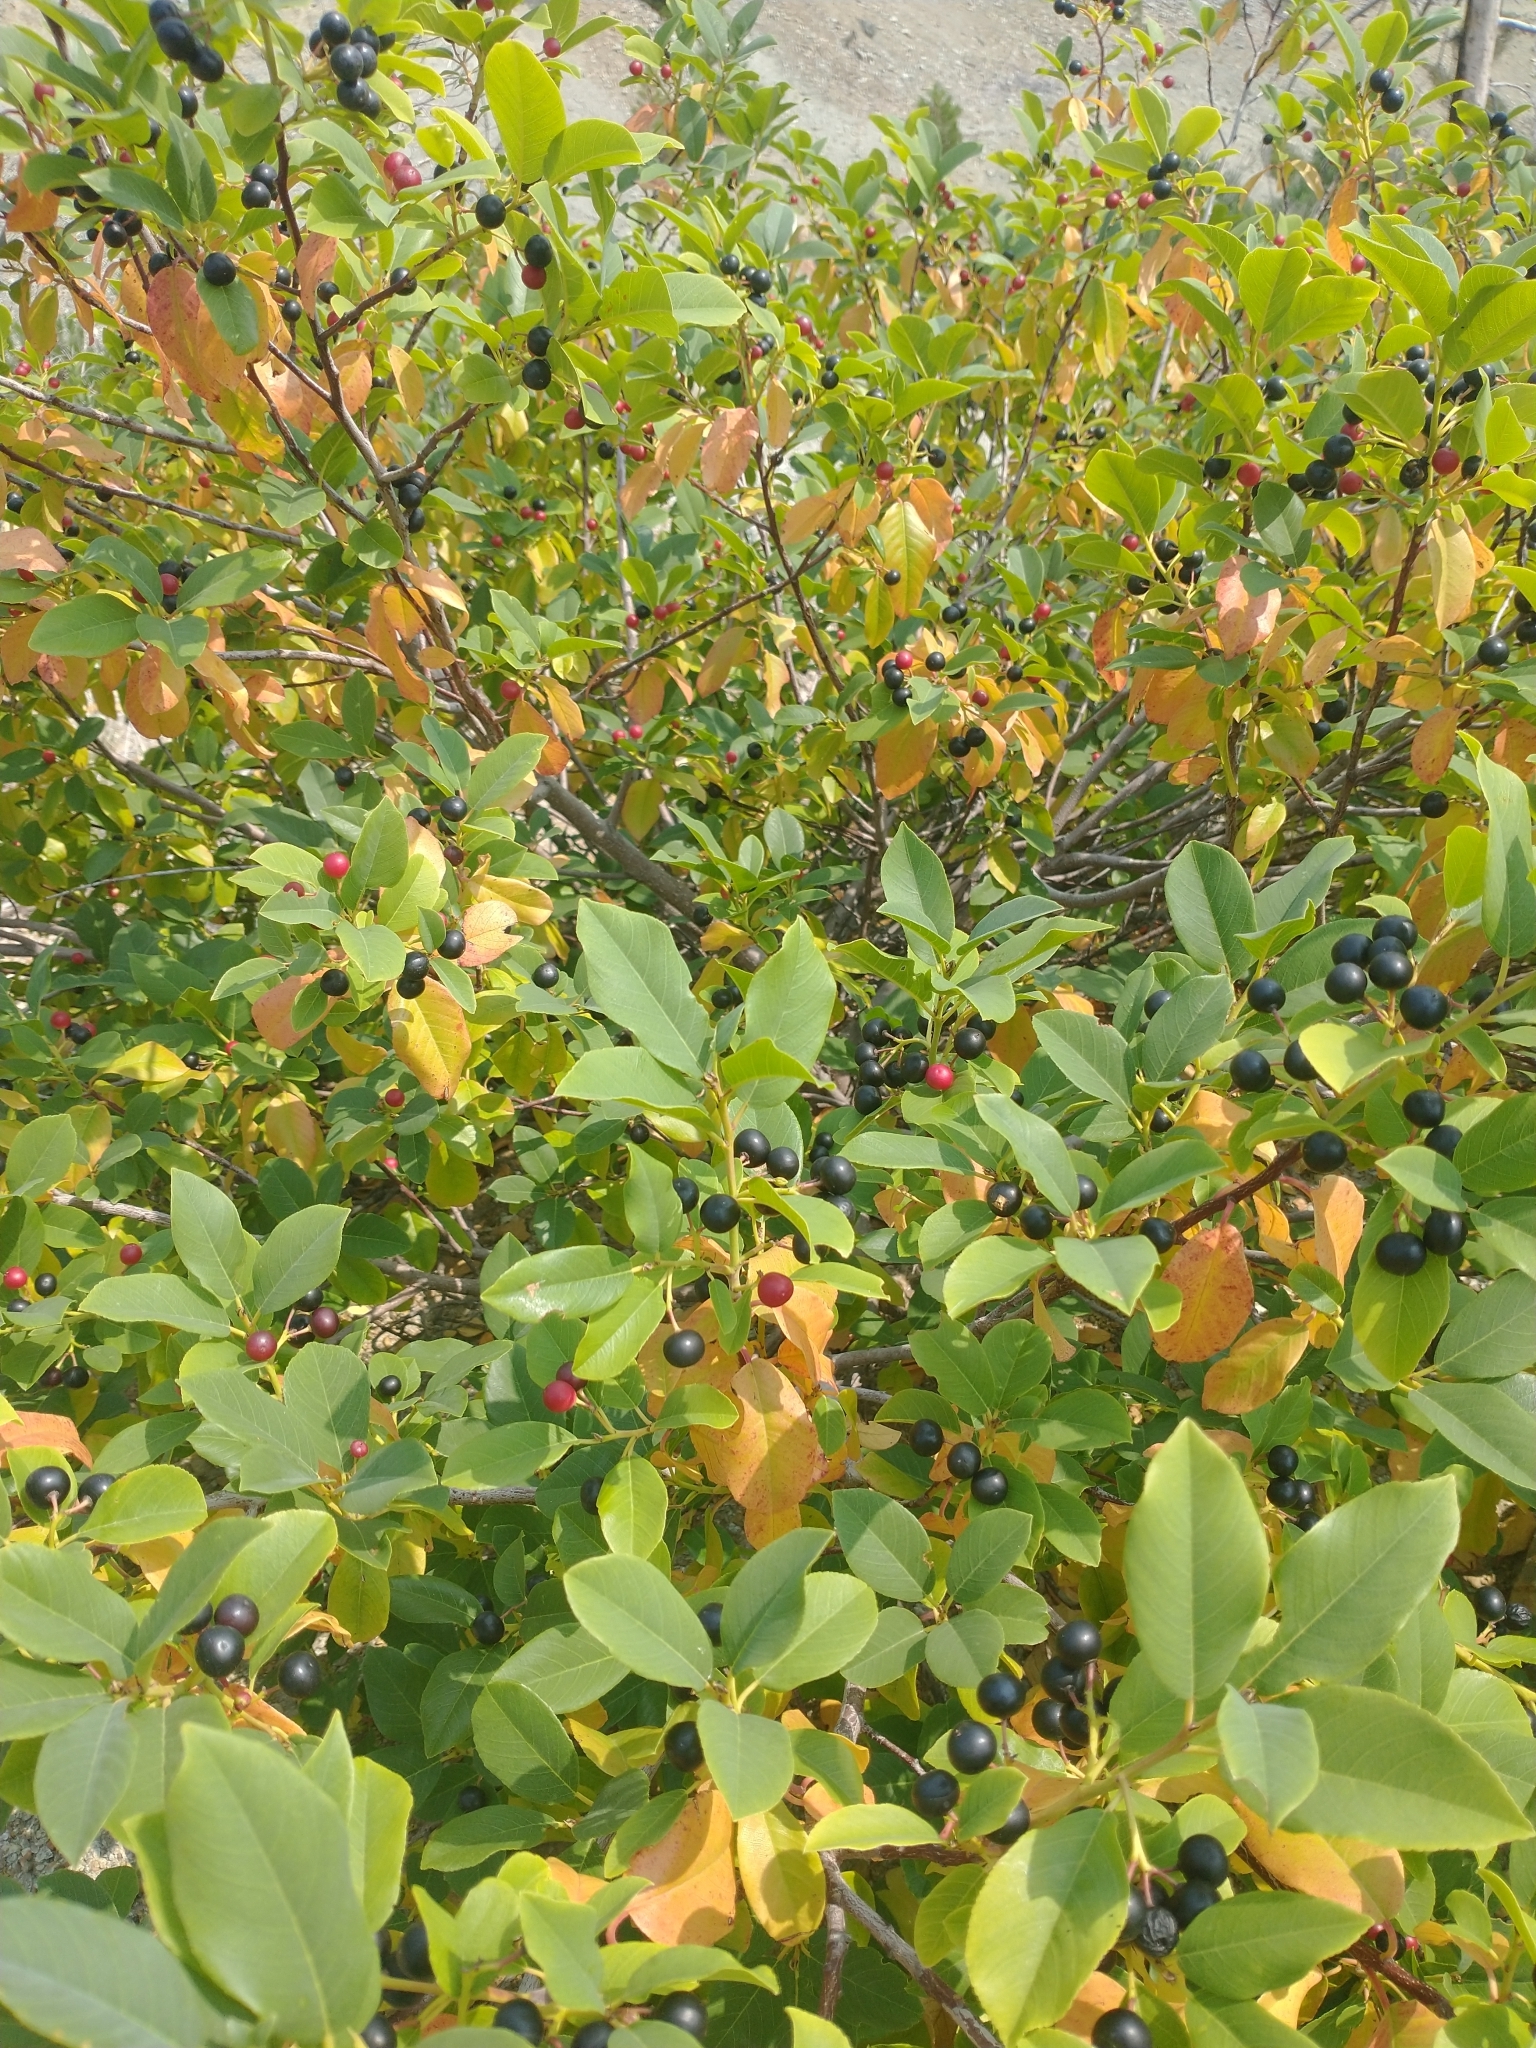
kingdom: Plantae
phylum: Tracheophyta
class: Magnoliopsida
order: Rosales
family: Rhamnaceae
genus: Frangula
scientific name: Frangula californica
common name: California buckthorn
